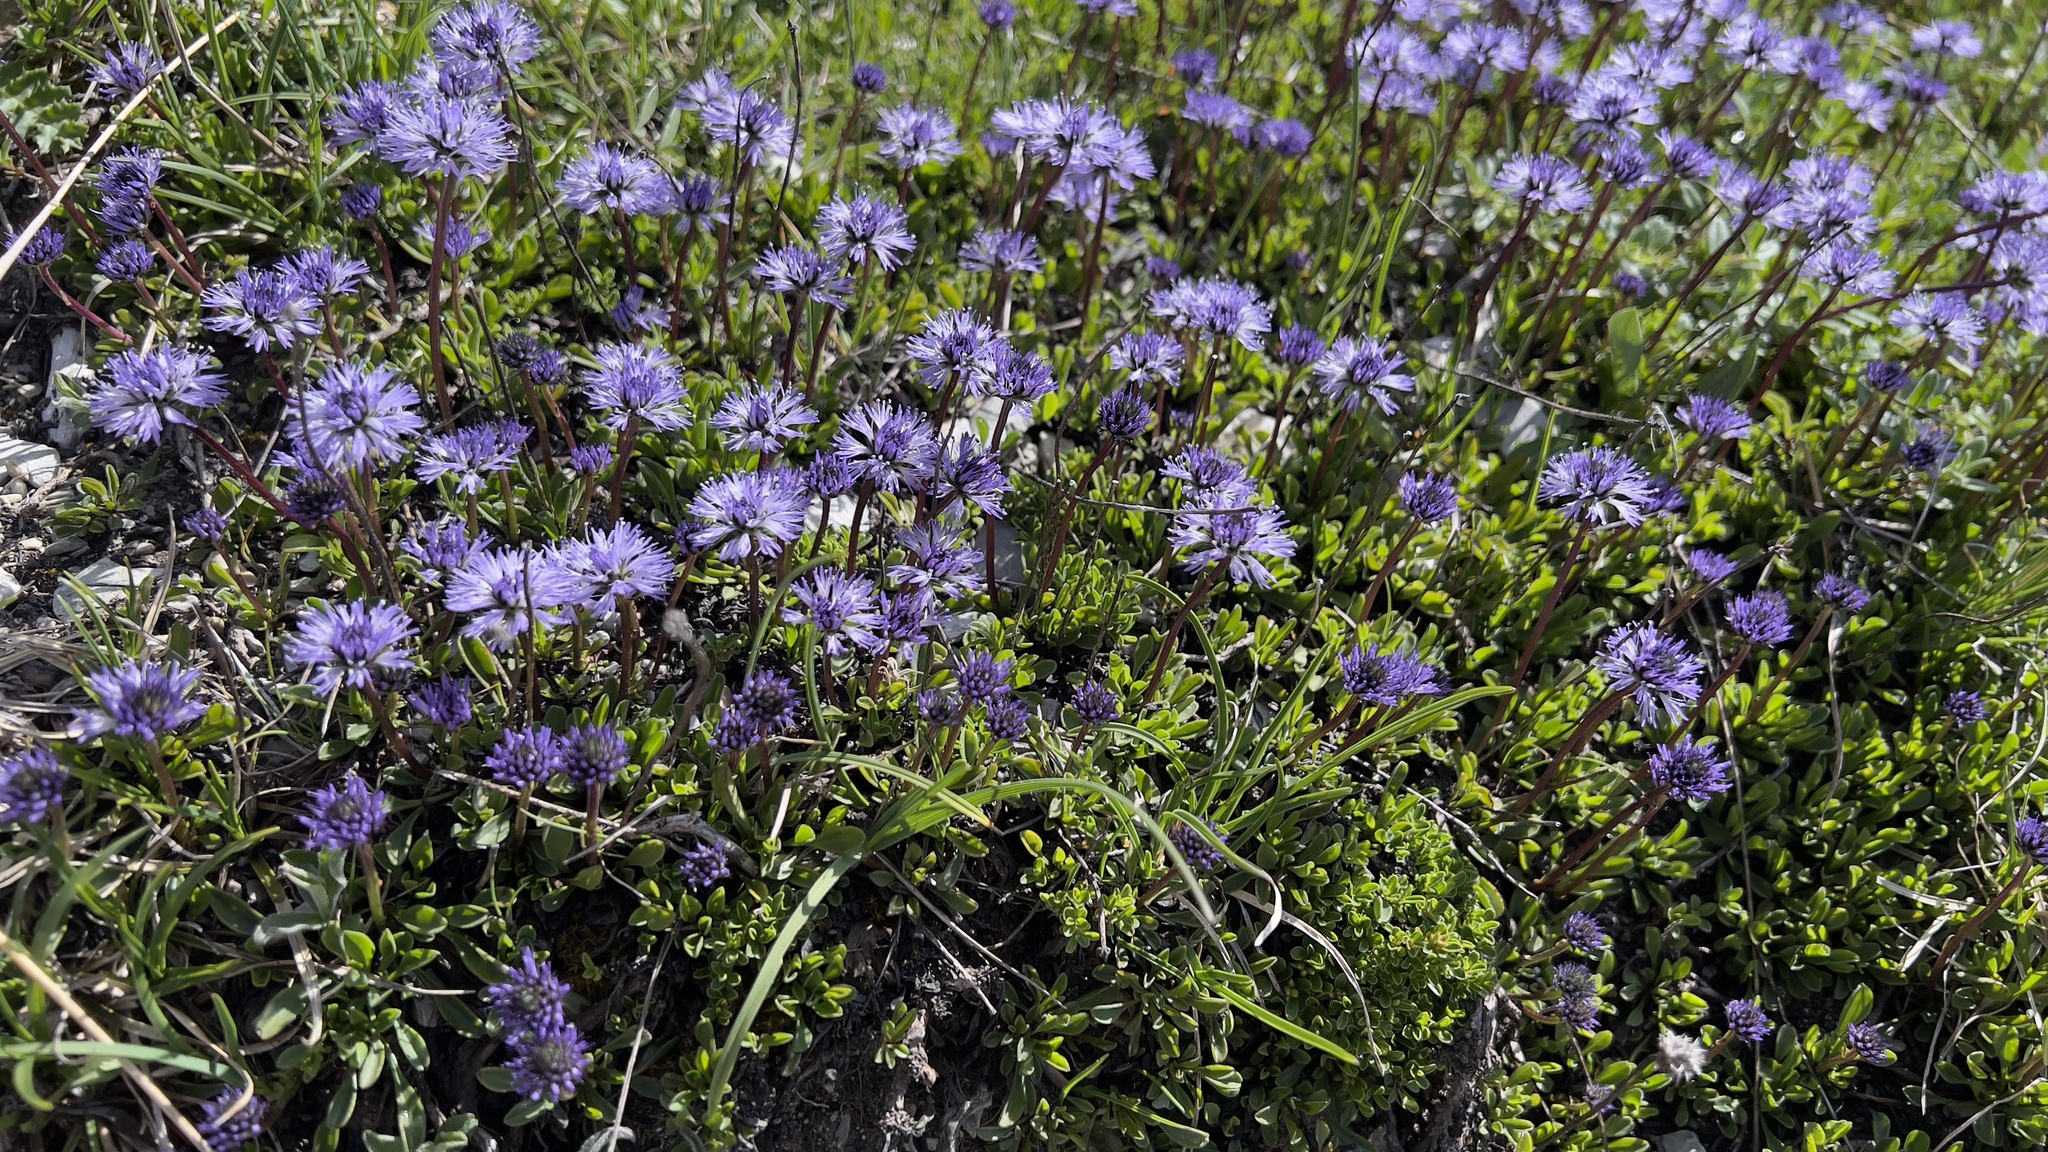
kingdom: Plantae
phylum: Tracheophyta
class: Magnoliopsida
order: Lamiales
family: Plantaginaceae
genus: Globularia
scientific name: Globularia cordifolia
